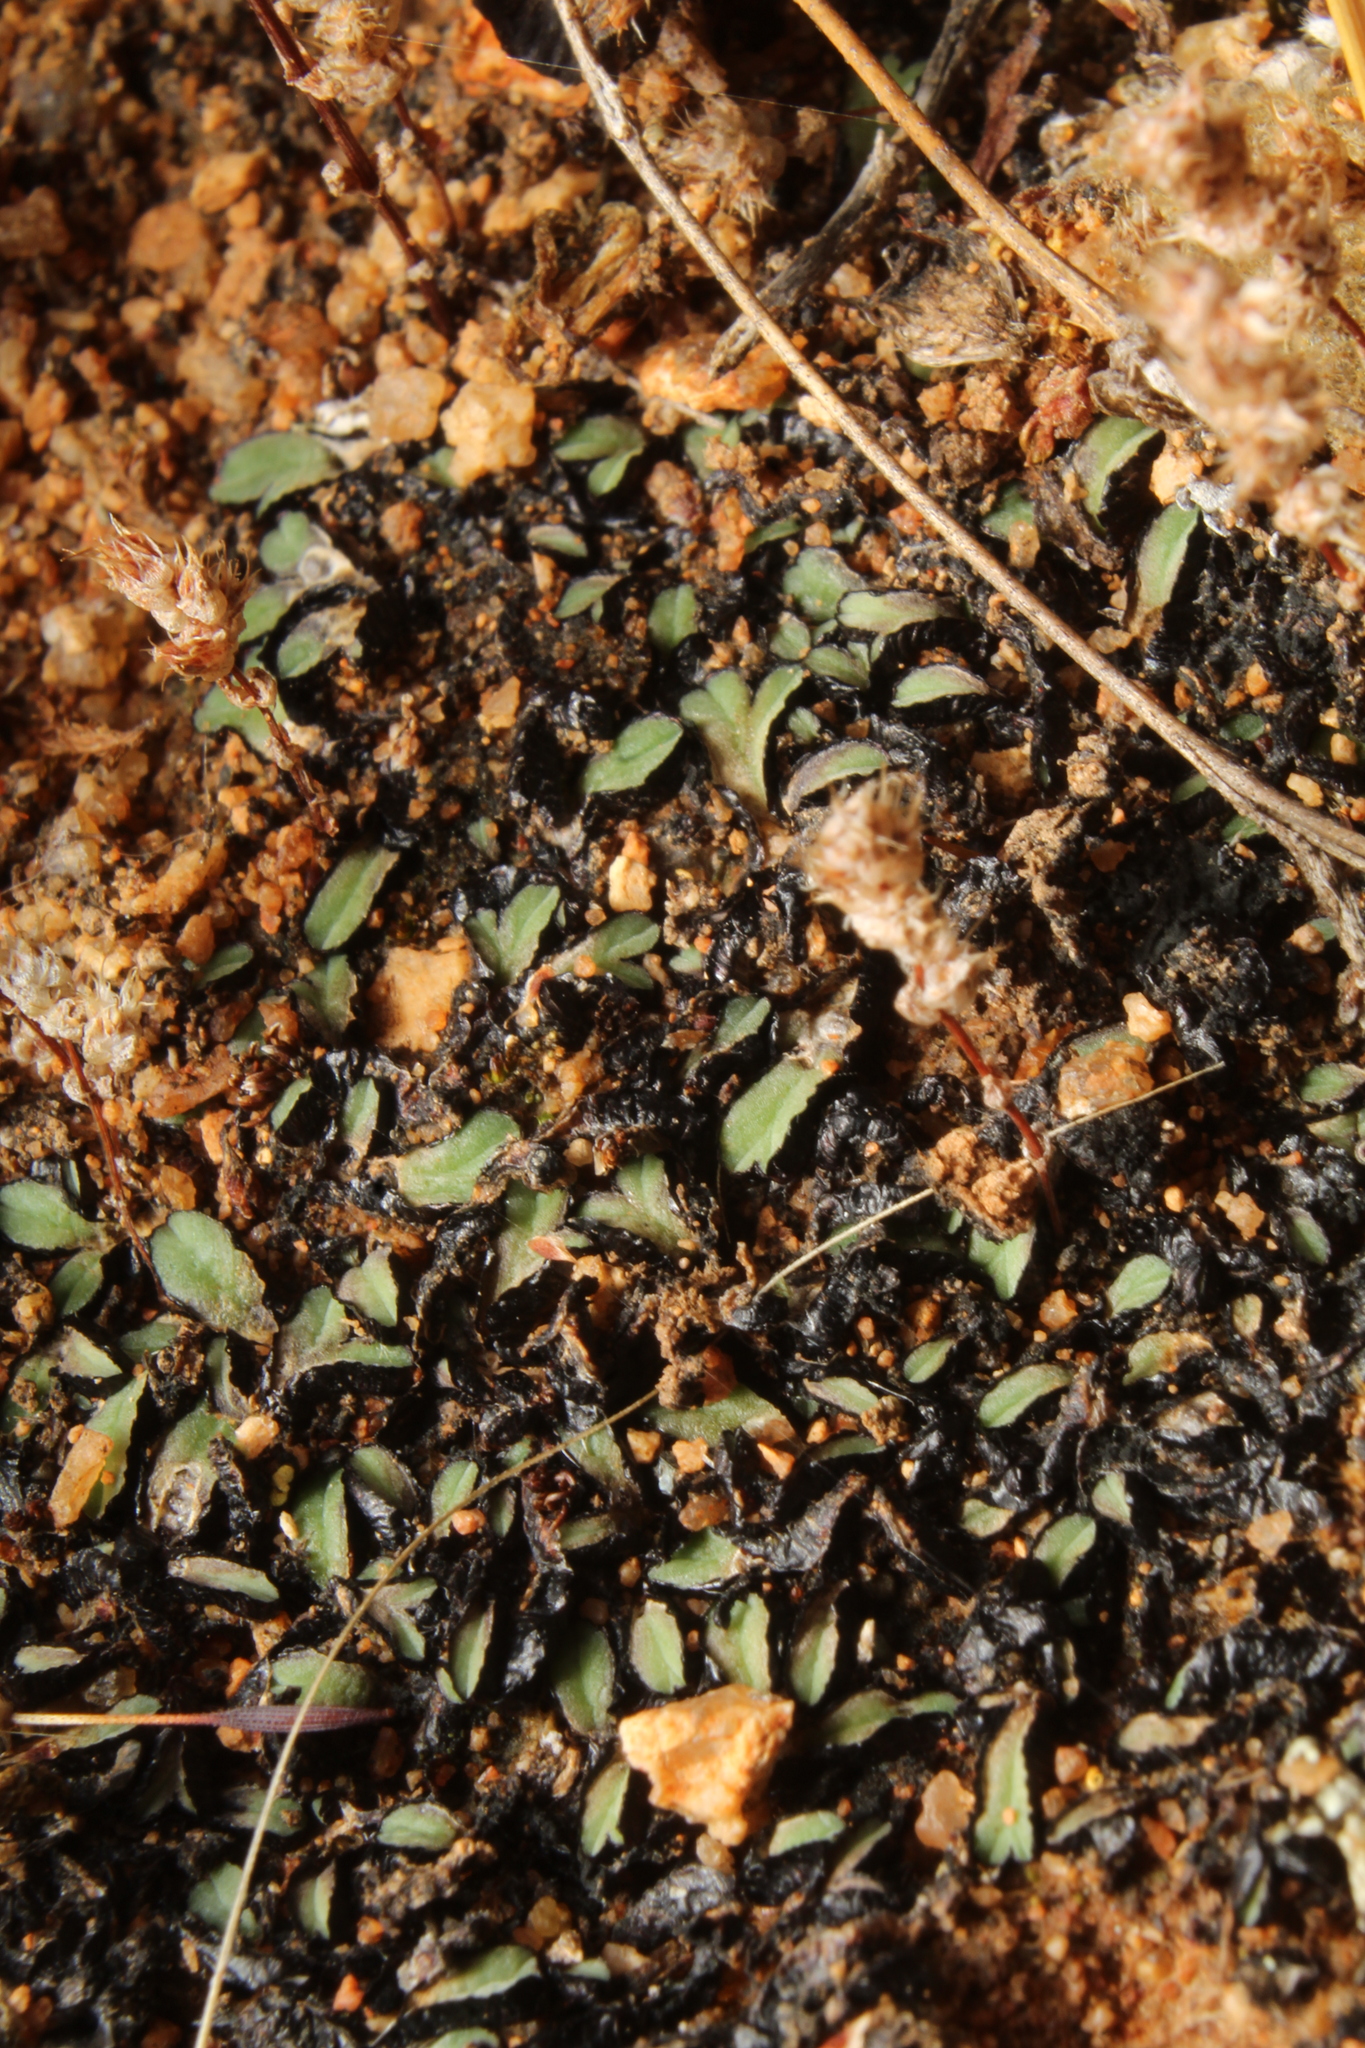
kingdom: Plantae
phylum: Marchantiophyta
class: Marchantiopsida
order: Marchantiales
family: Ricciaceae
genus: Riccia
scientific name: Riccia inflexa
